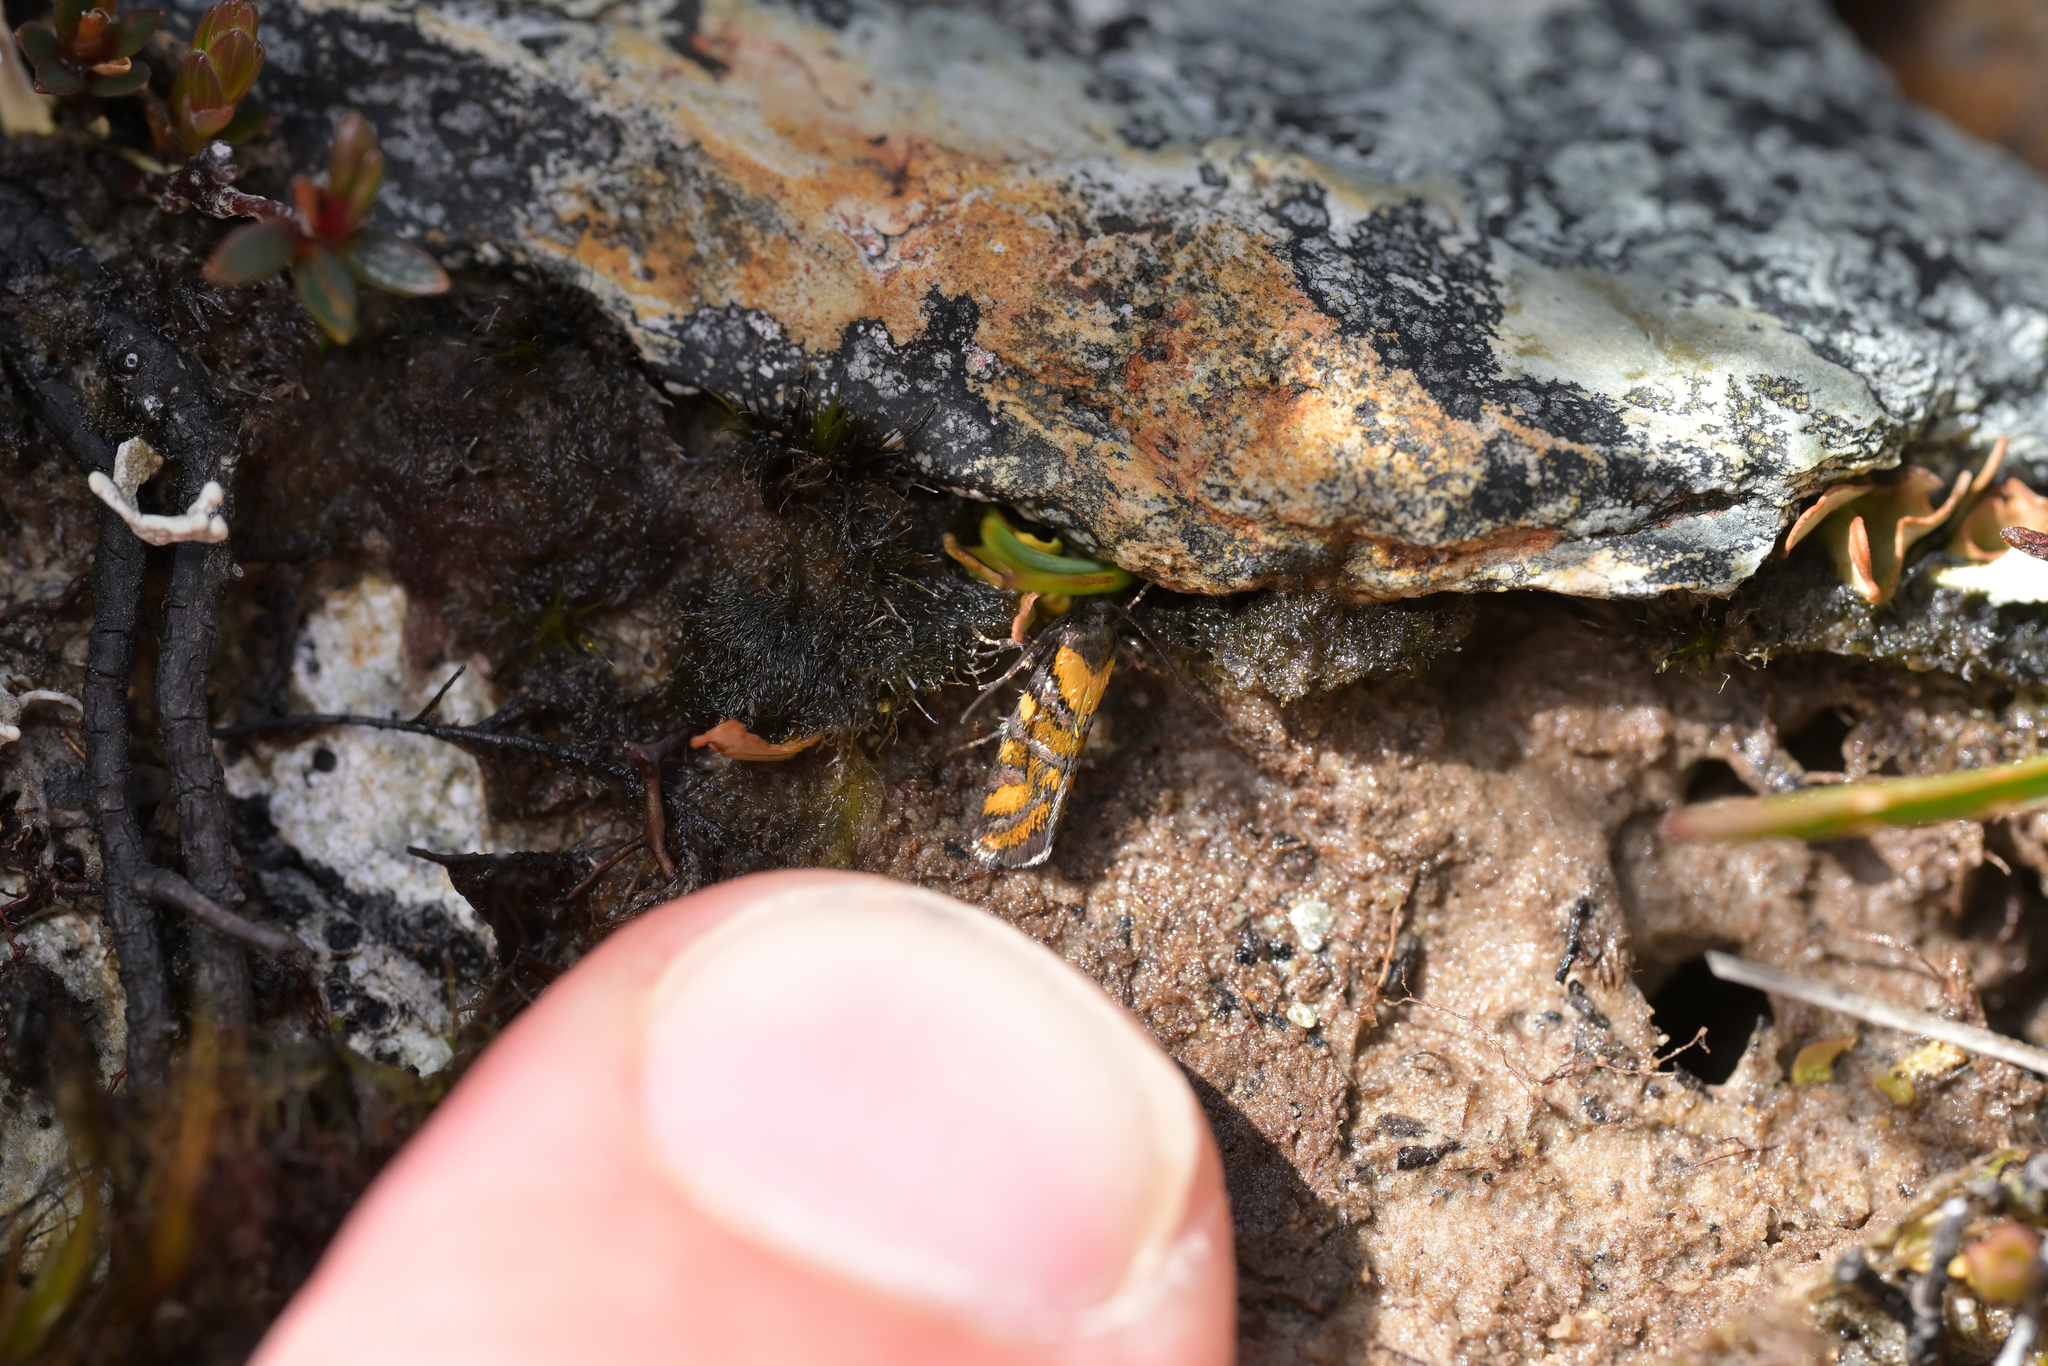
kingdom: Animalia
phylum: Arthropoda
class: Insecta
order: Lepidoptera
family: Oecophoridae
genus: Tingena
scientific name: Tingena compsogramma
